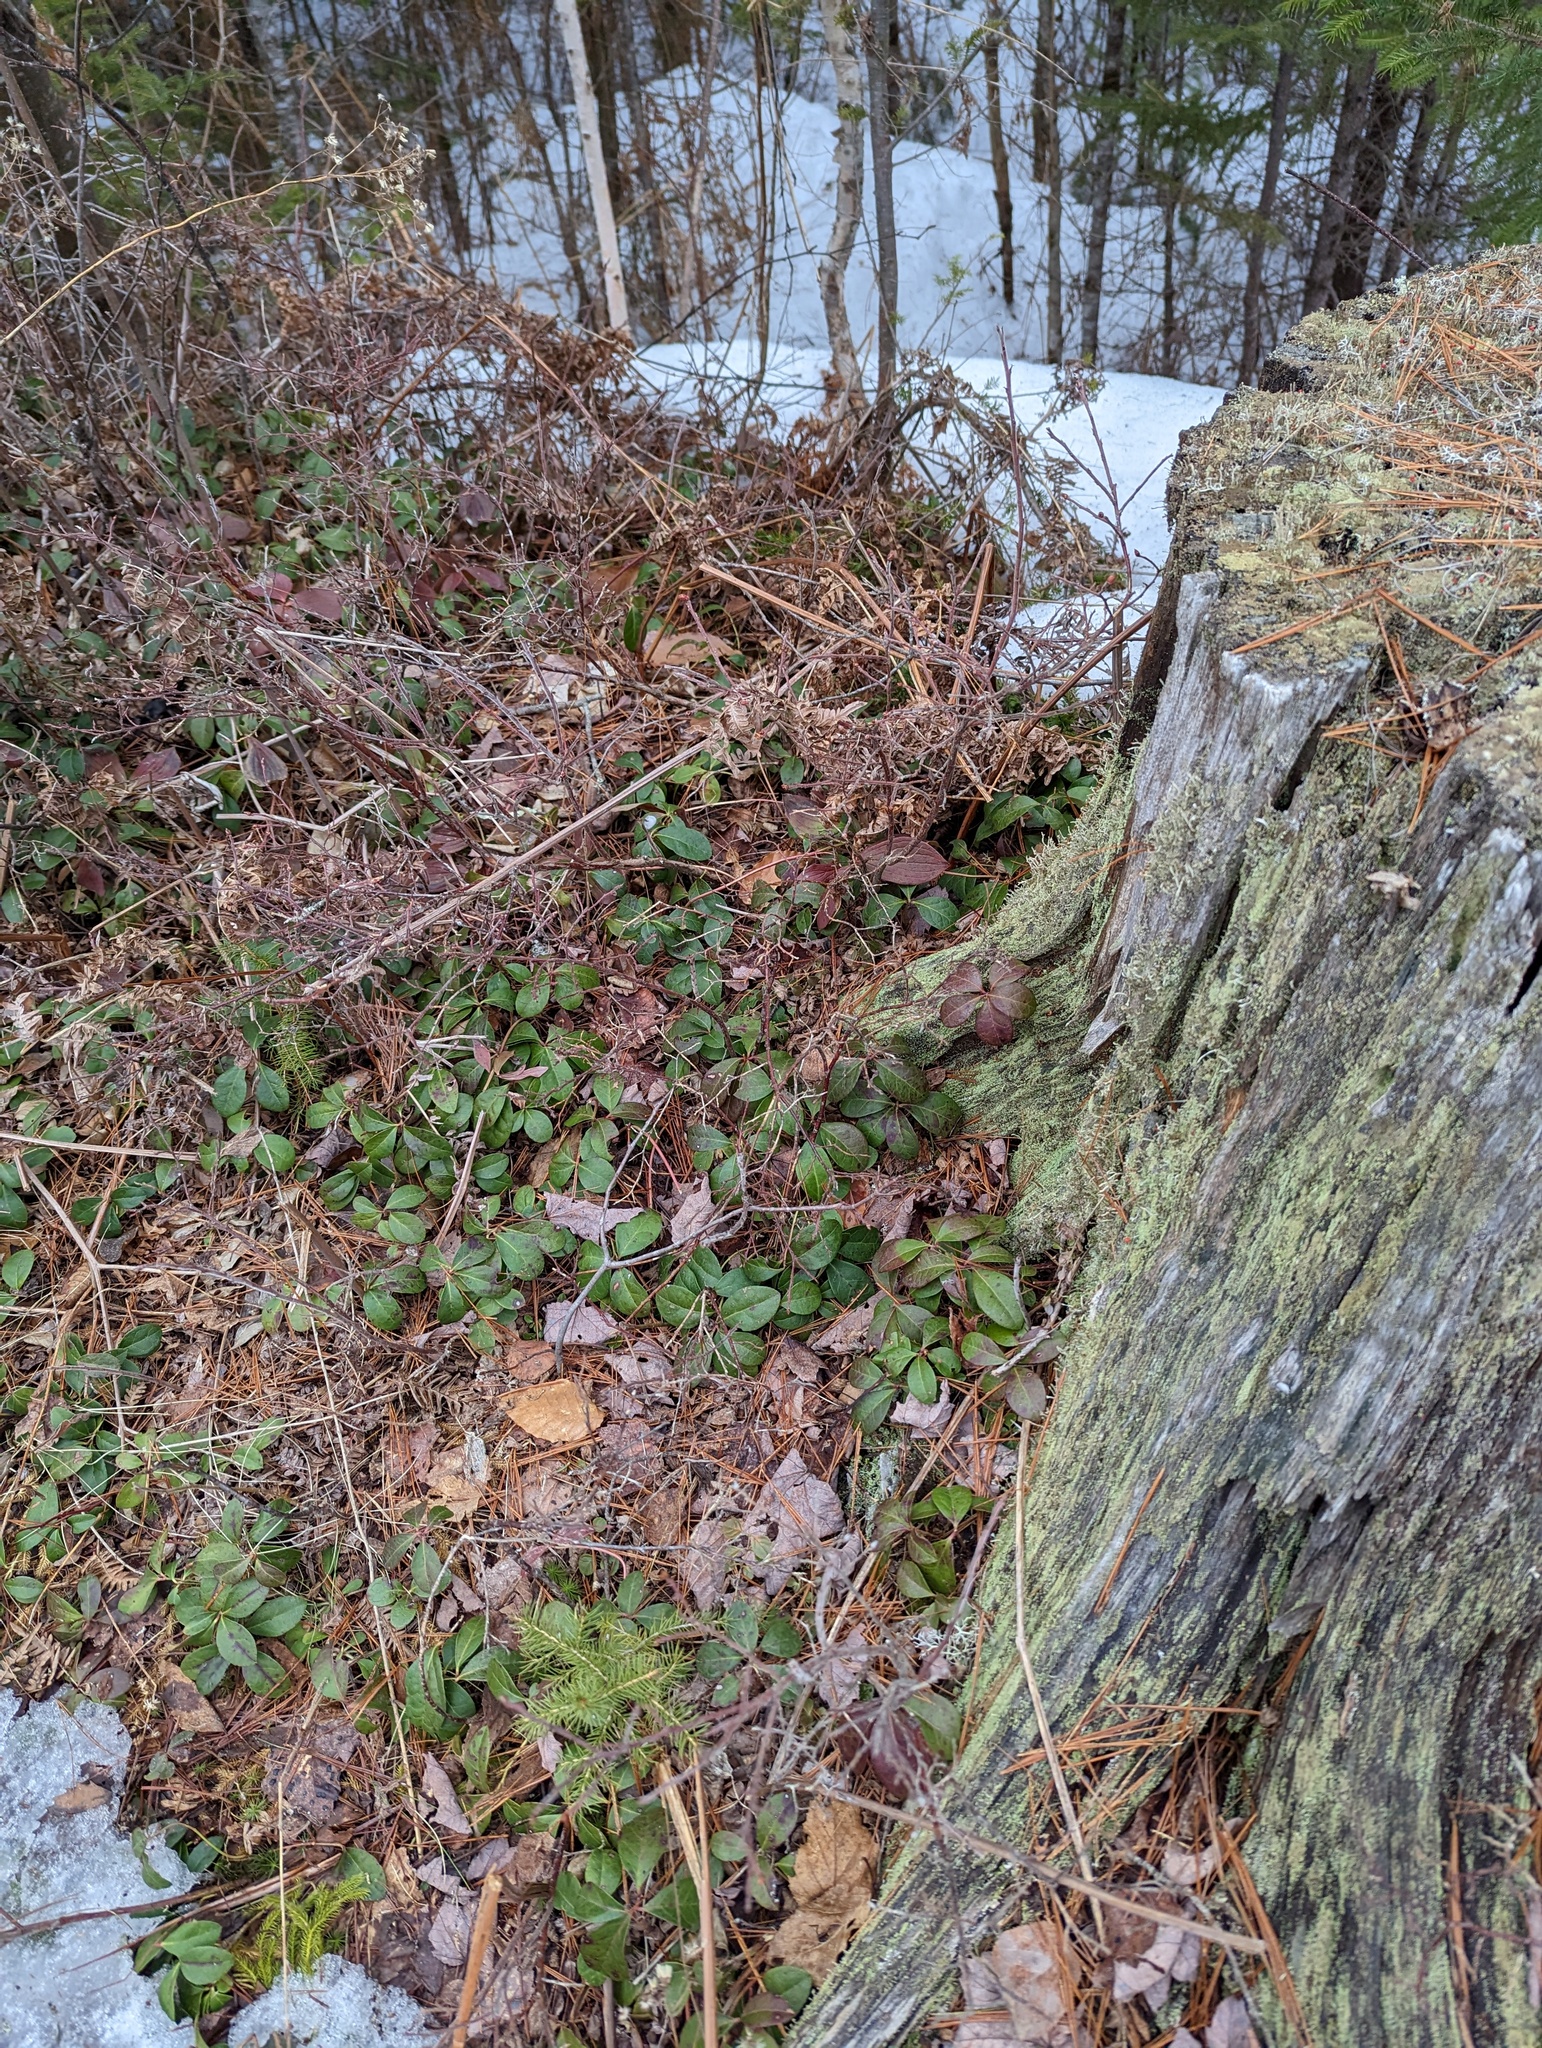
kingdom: Plantae
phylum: Tracheophyta
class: Magnoliopsida
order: Ericales
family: Ericaceae
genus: Gaultheria
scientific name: Gaultheria procumbens
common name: Checkerberry
